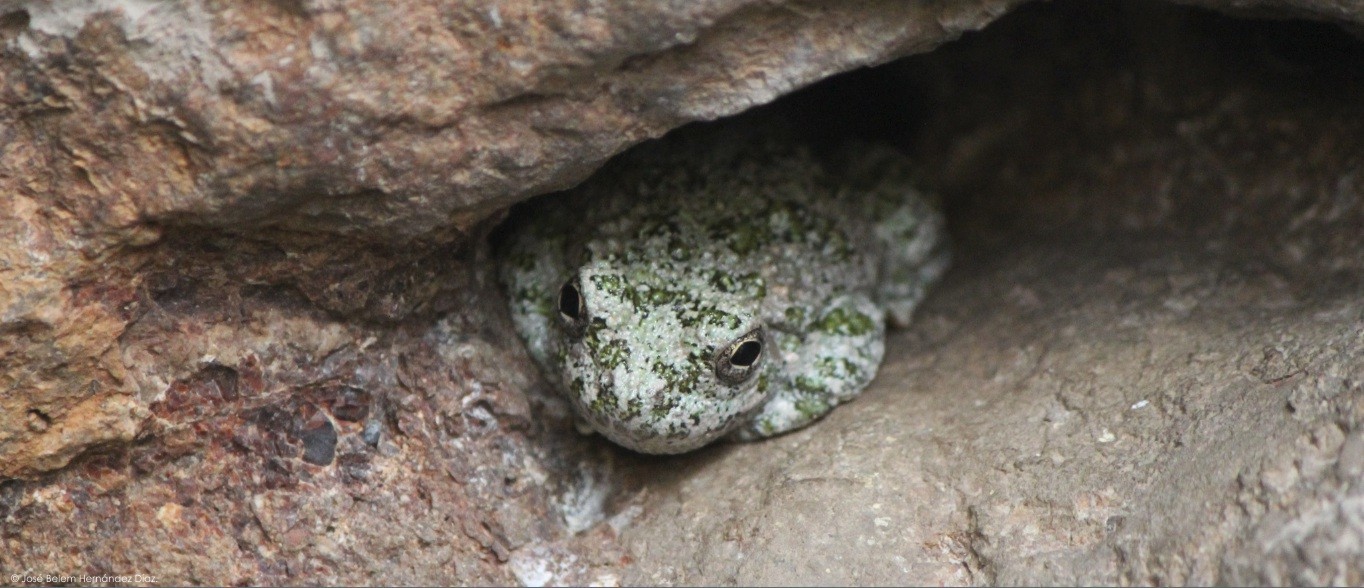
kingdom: Animalia
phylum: Chordata
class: Amphibia
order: Anura
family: Hylidae
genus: Dryophytes
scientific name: Dryophytes arenicolor
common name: Canyon treefrog
